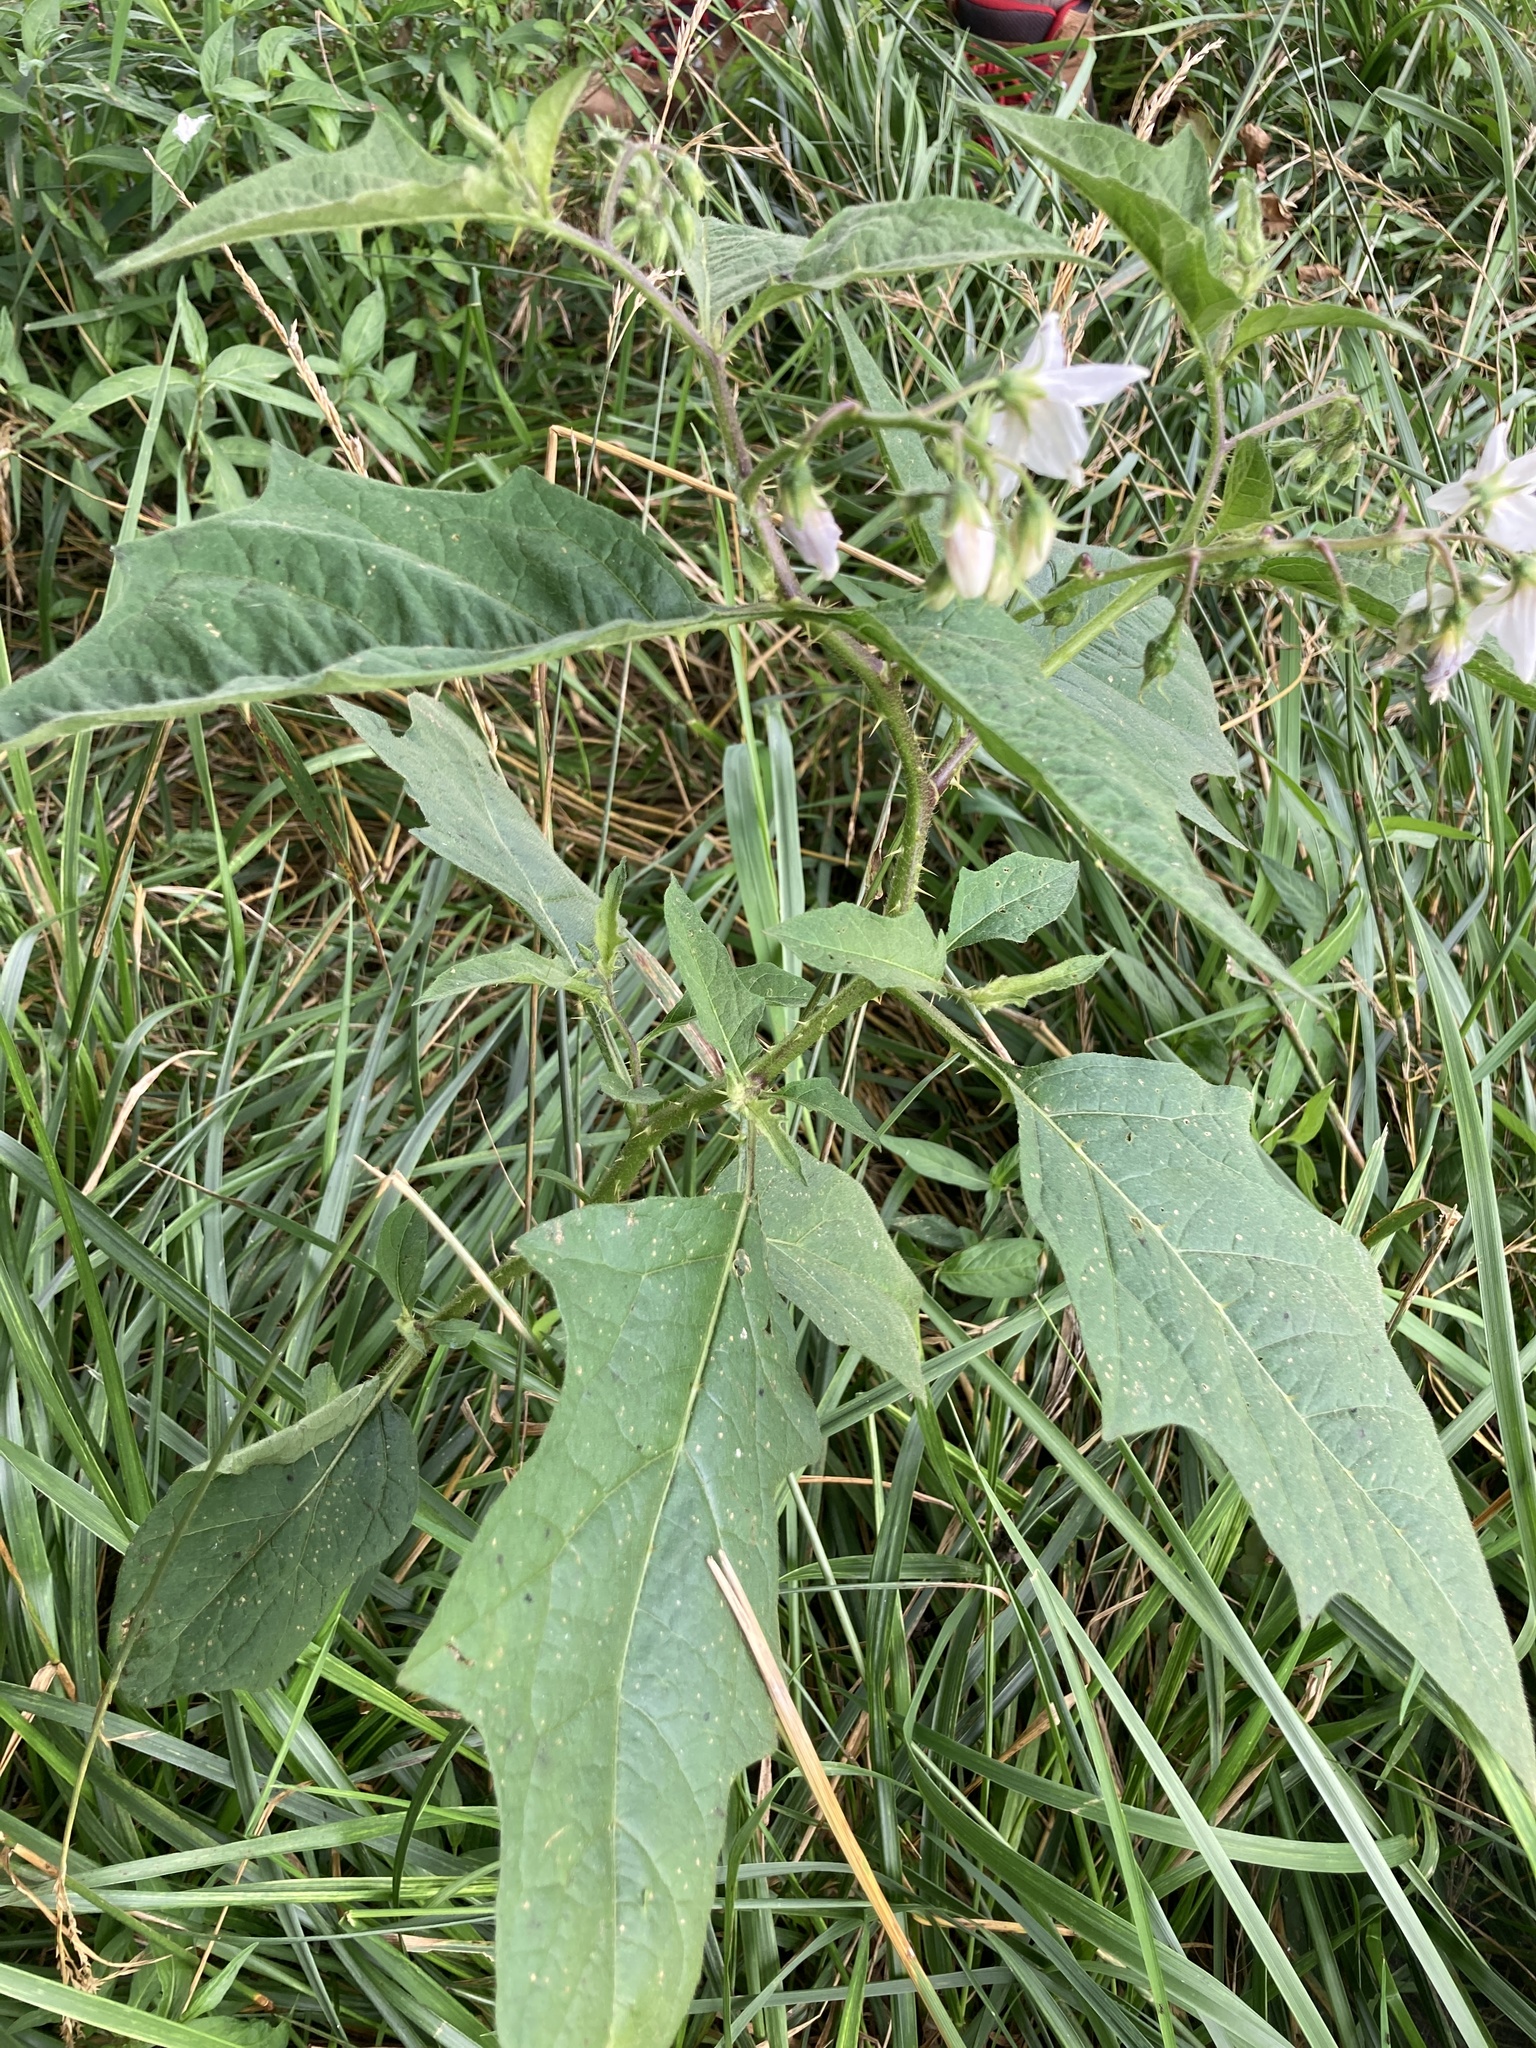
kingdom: Plantae
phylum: Tracheophyta
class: Magnoliopsida
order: Solanales
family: Solanaceae
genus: Solanum
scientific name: Solanum carolinense
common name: Horse-nettle
